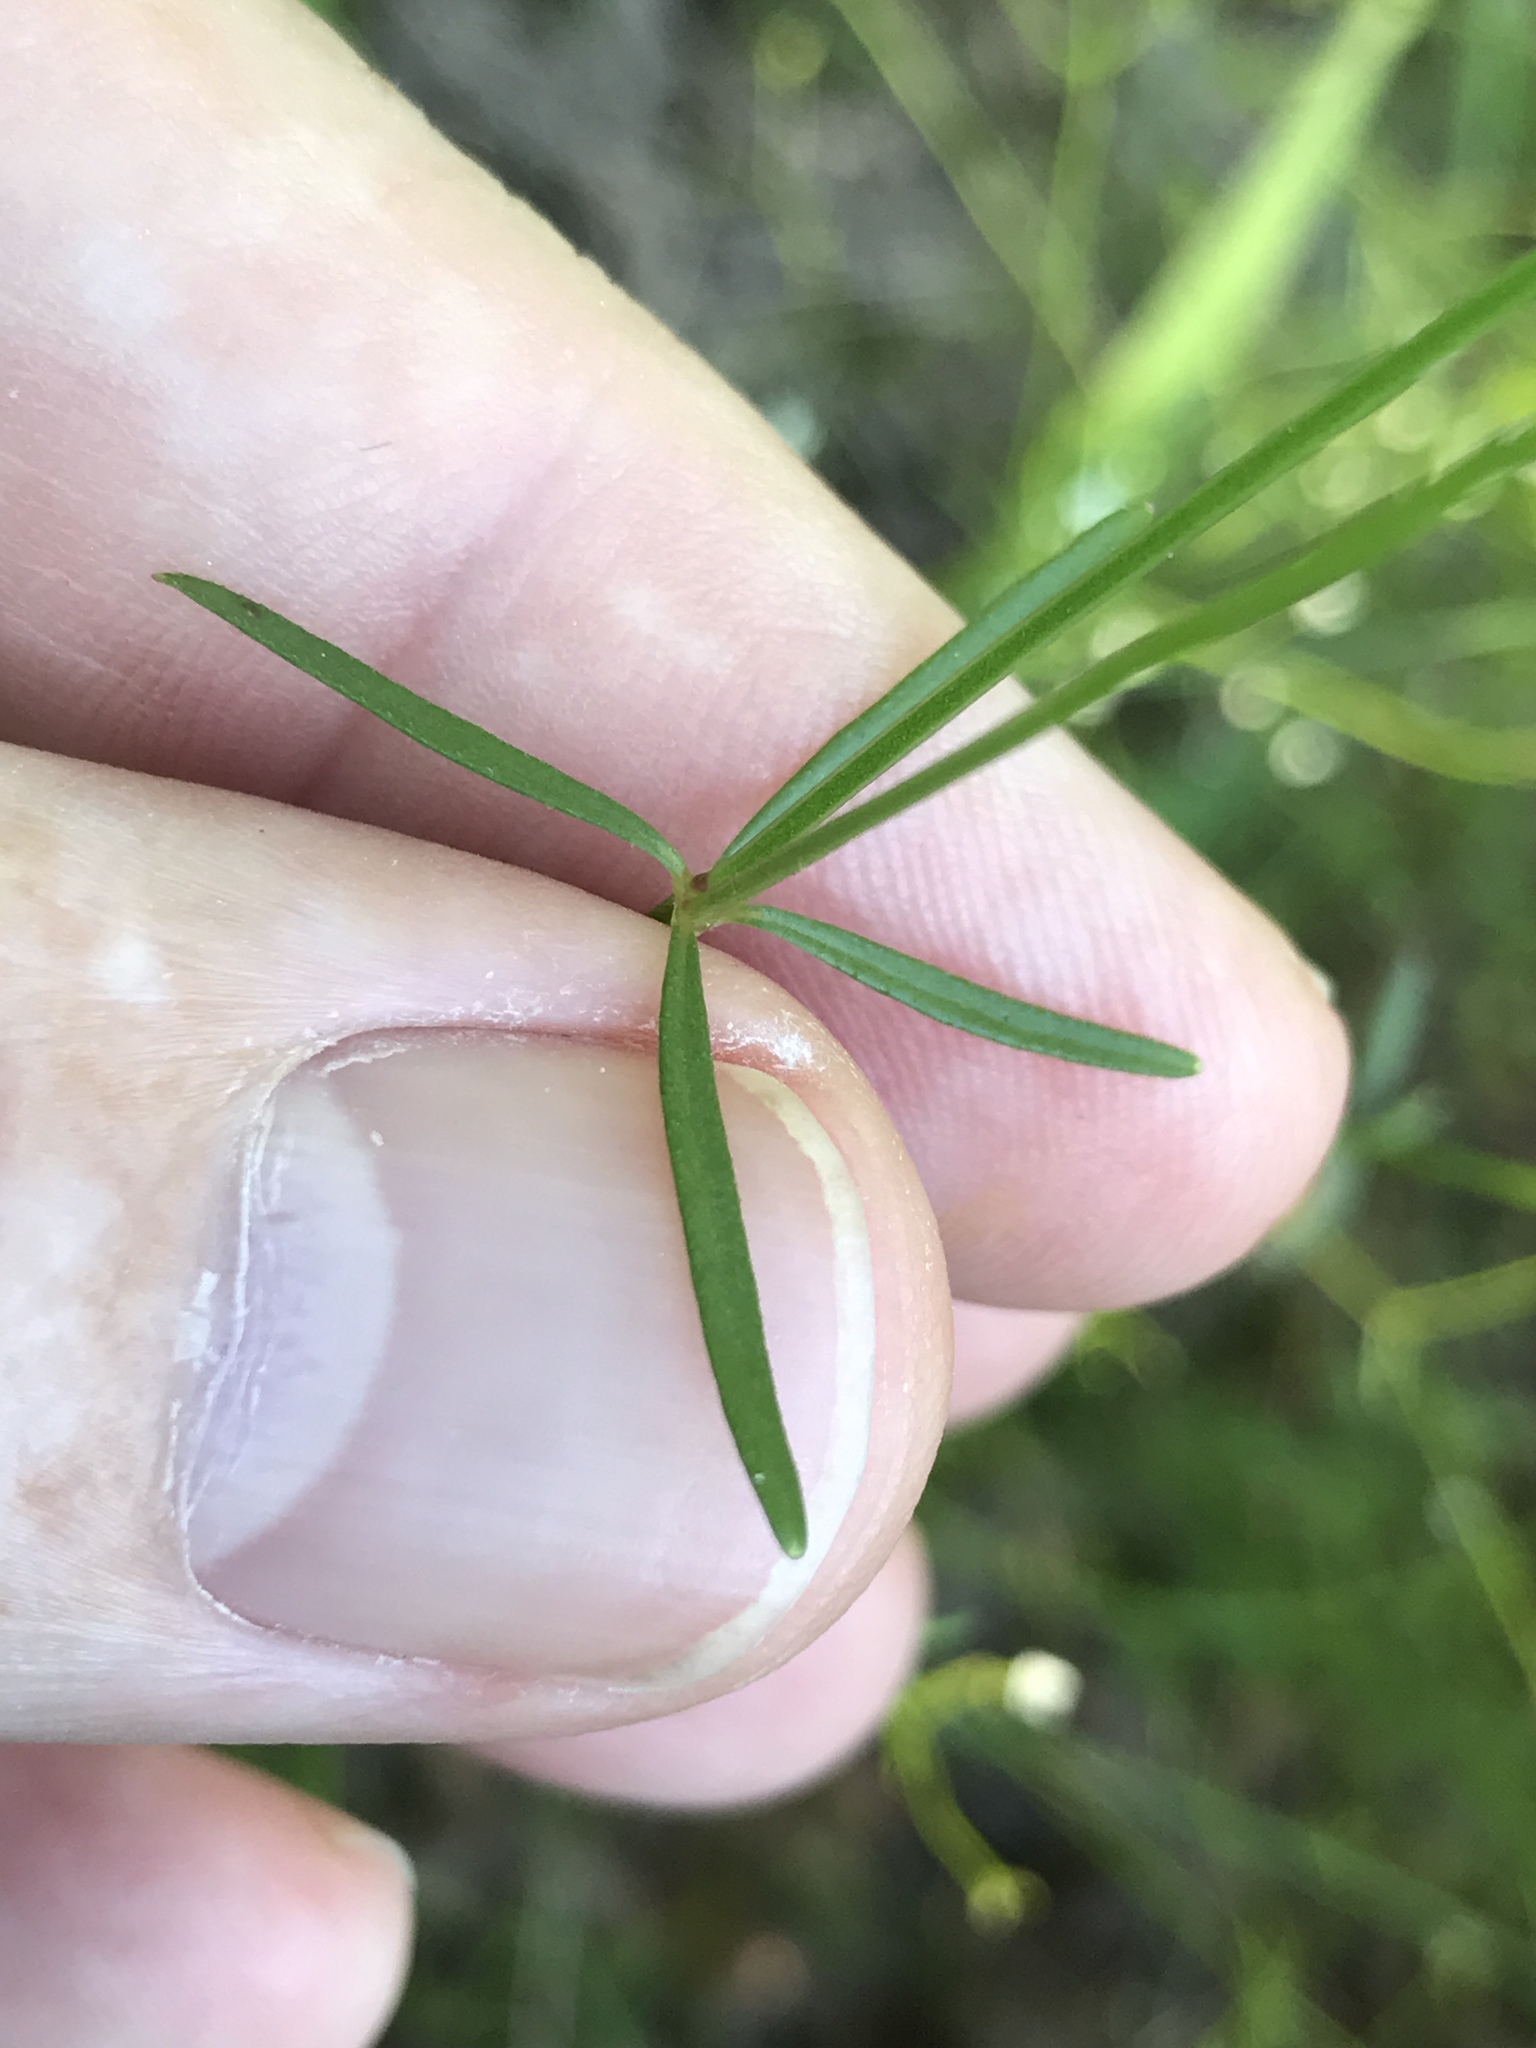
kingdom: Plantae
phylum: Tracheophyta
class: Magnoliopsida
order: Gentianales
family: Rubiaceae
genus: Galium
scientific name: Galium obtusum
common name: Blunt-leaved bedstraw
